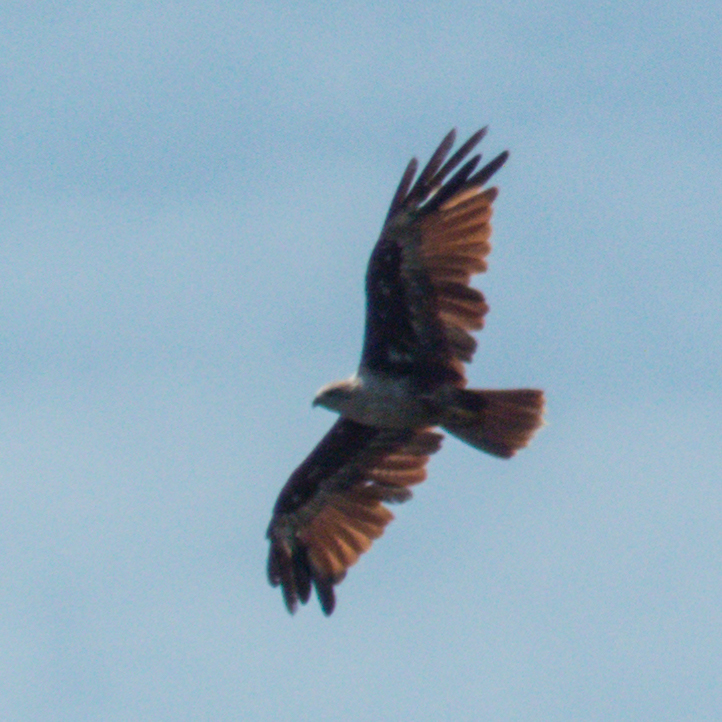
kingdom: Animalia
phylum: Chordata
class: Aves
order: Accipitriformes
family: Accipitridae
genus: Haliastur
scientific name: Haliastur indus
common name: Brahminy kite
